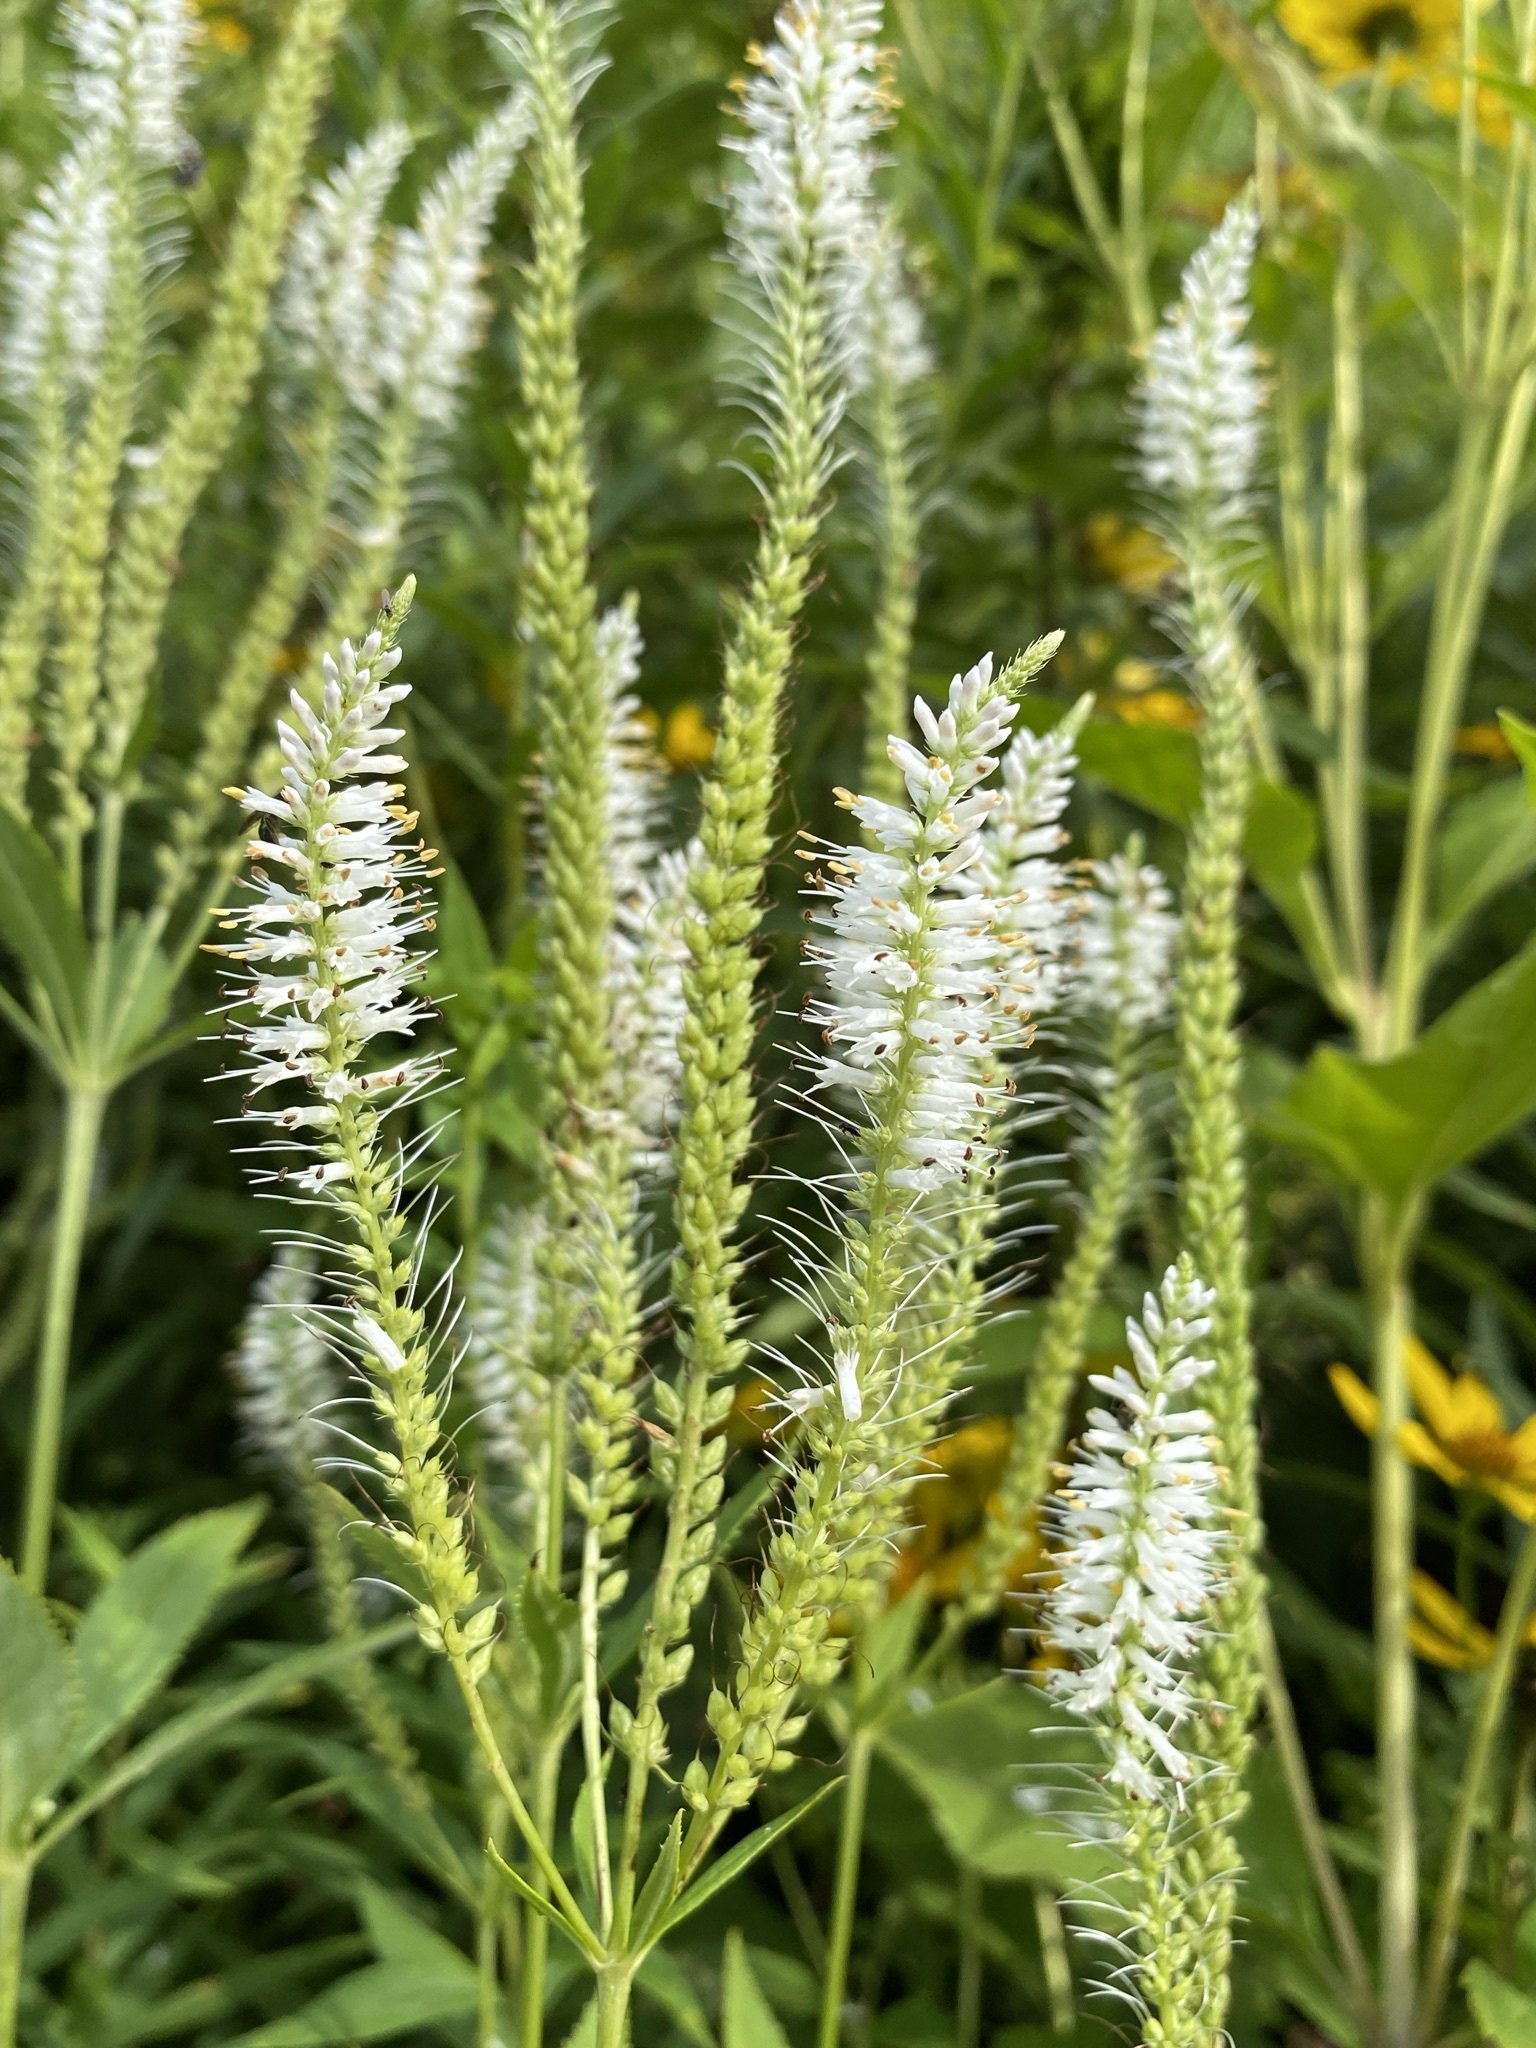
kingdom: Plantae
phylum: Tracheophyta
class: Magnoliopsida
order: Lamiales
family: Plantaginaceae
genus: Veronicastrum
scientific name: Veronicastrum virginicum
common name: Blackroot
